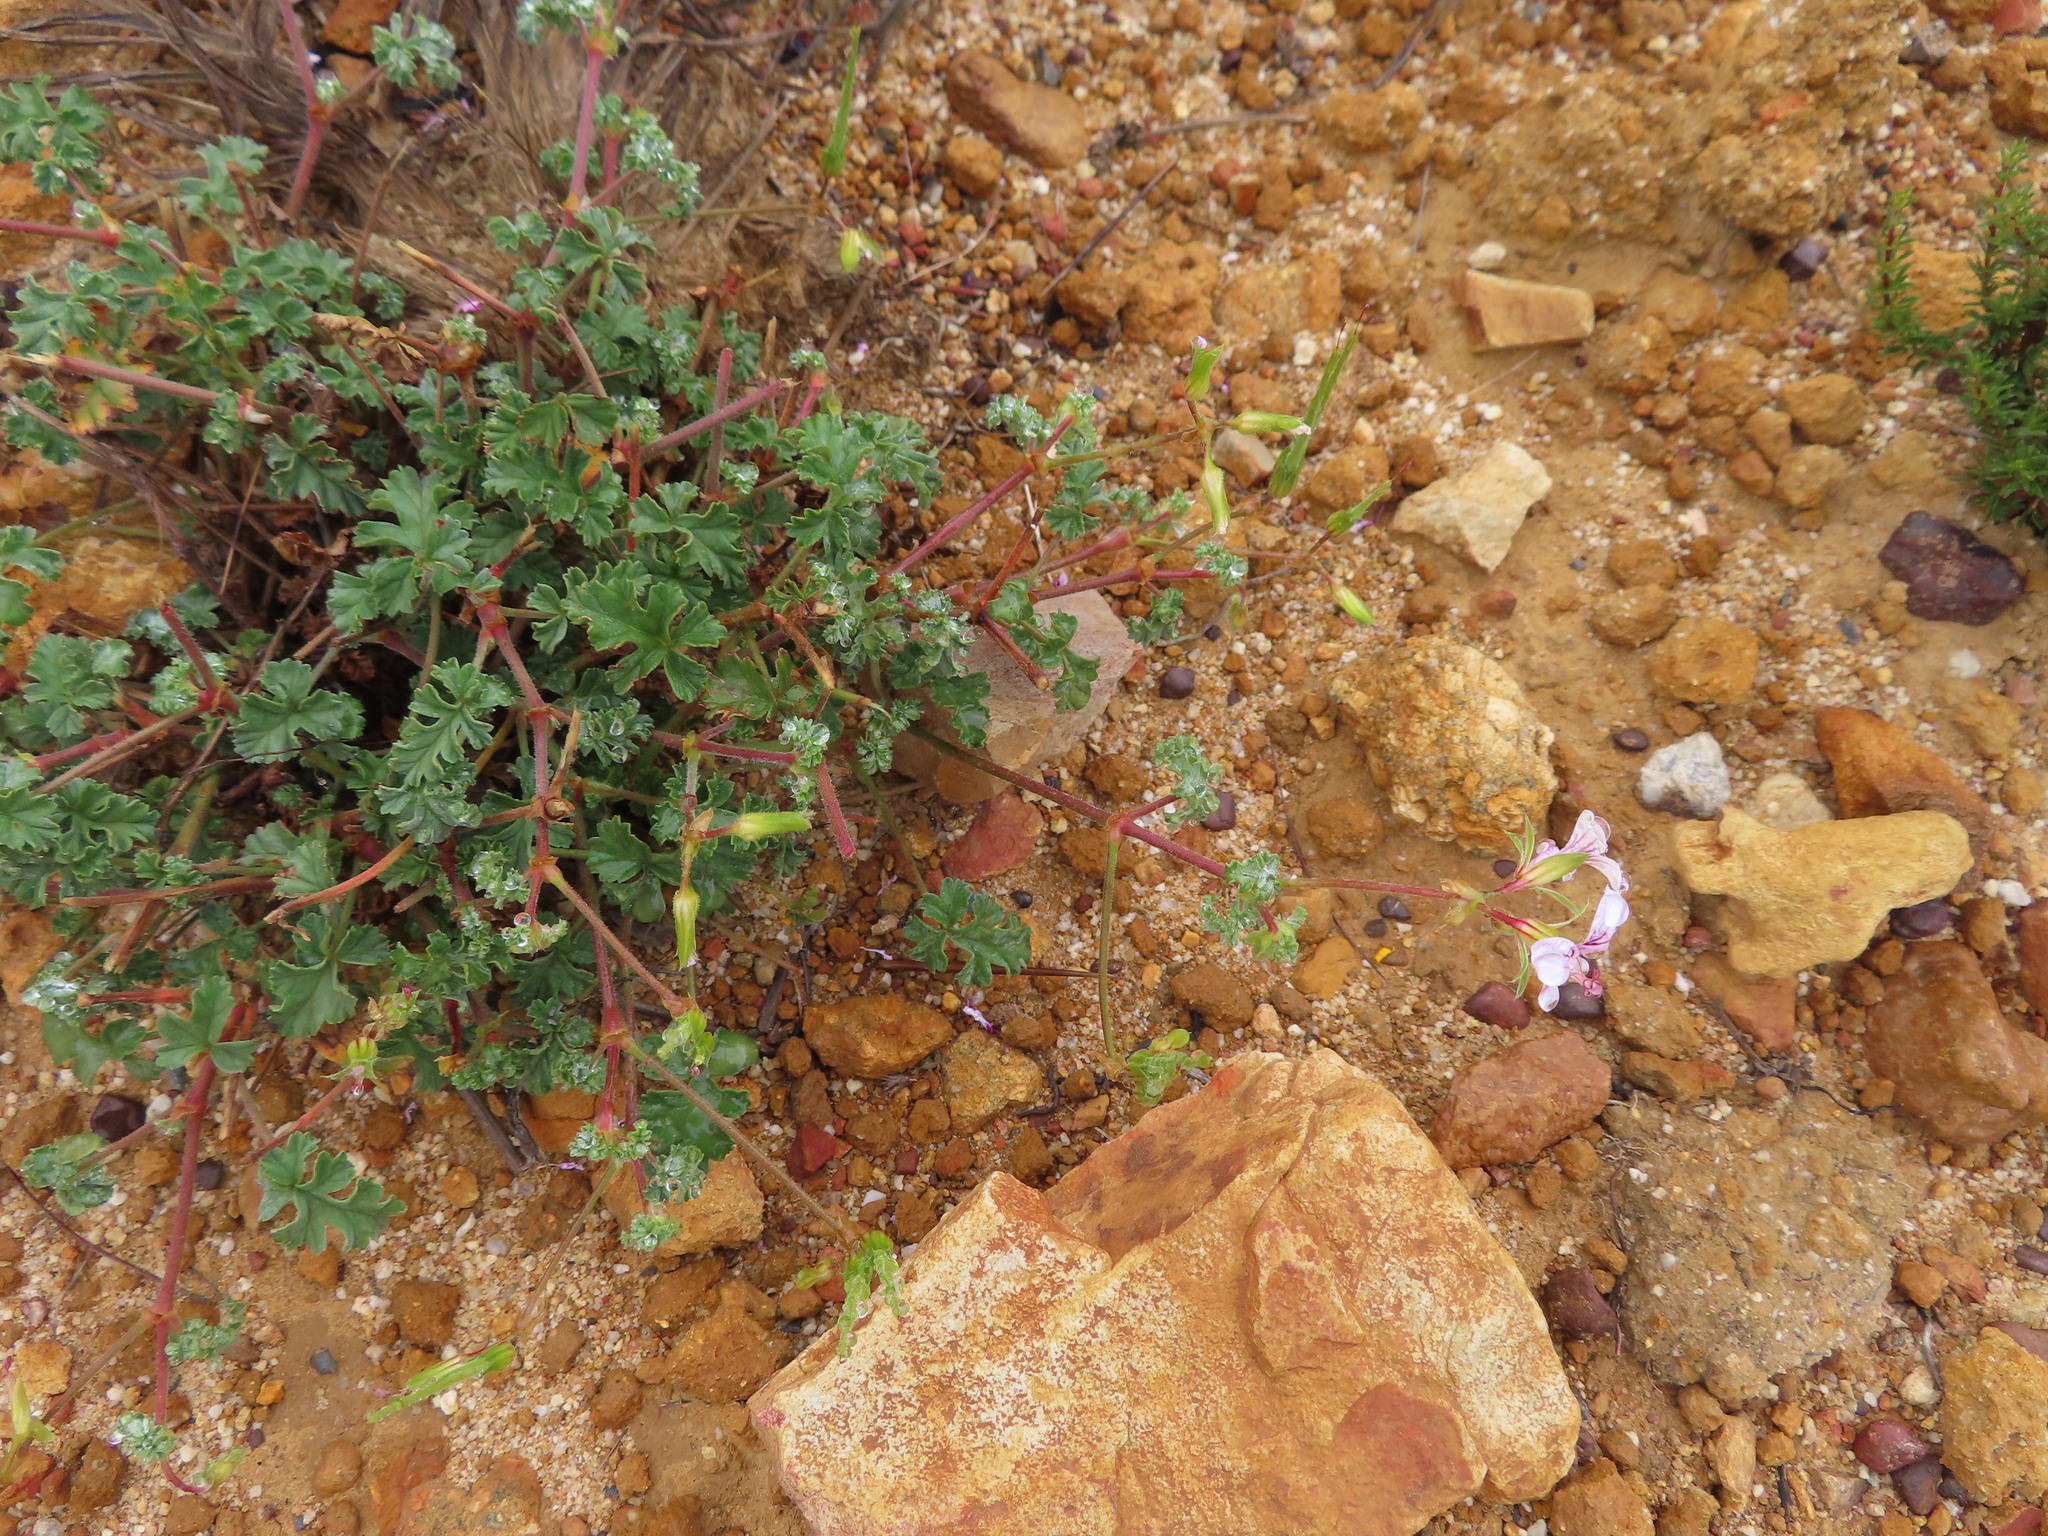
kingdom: Plantae
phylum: Tracheophyta
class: Magnoliopsida
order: Geraniales
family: Geraniaceae
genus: Pelargonium
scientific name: Pelargonium candicans
